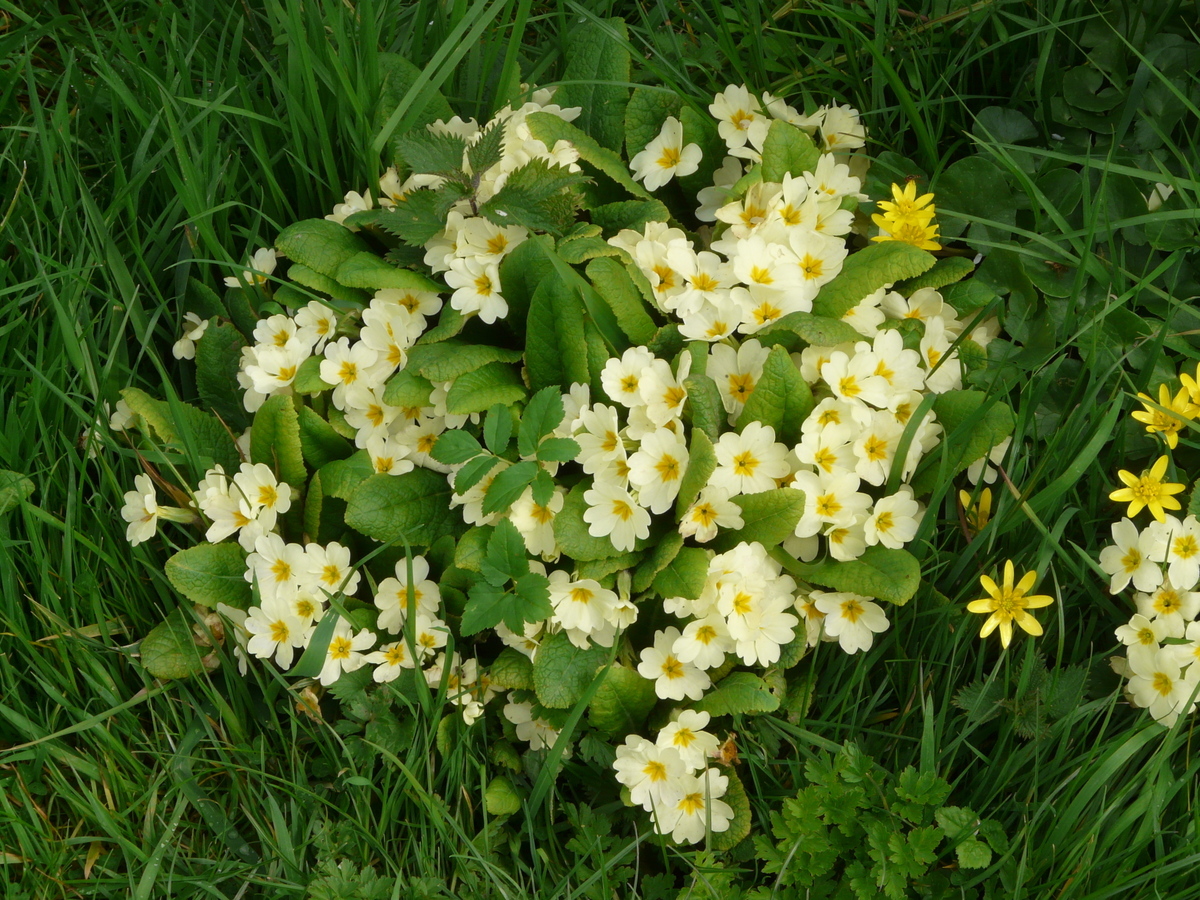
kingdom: Plantae
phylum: Tracheophyta
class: Magnoliopsida
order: Ericales
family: Primulaceae
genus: Primula
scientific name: Primula vulgaris
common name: Primrose
